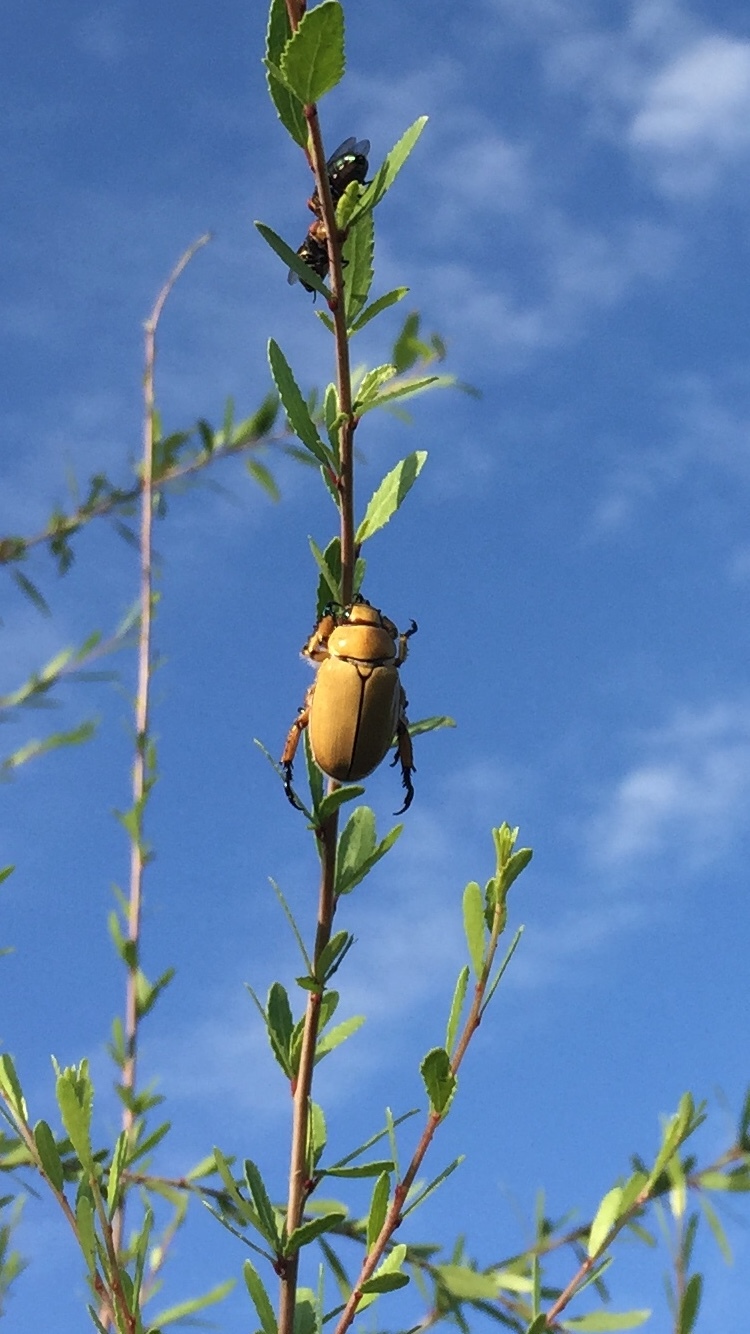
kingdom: Animalia
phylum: Arthropoda
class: Insecta
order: Coleoptera
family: Scarabaeidae
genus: Cotalpa
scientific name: Cotalpa consobrina
